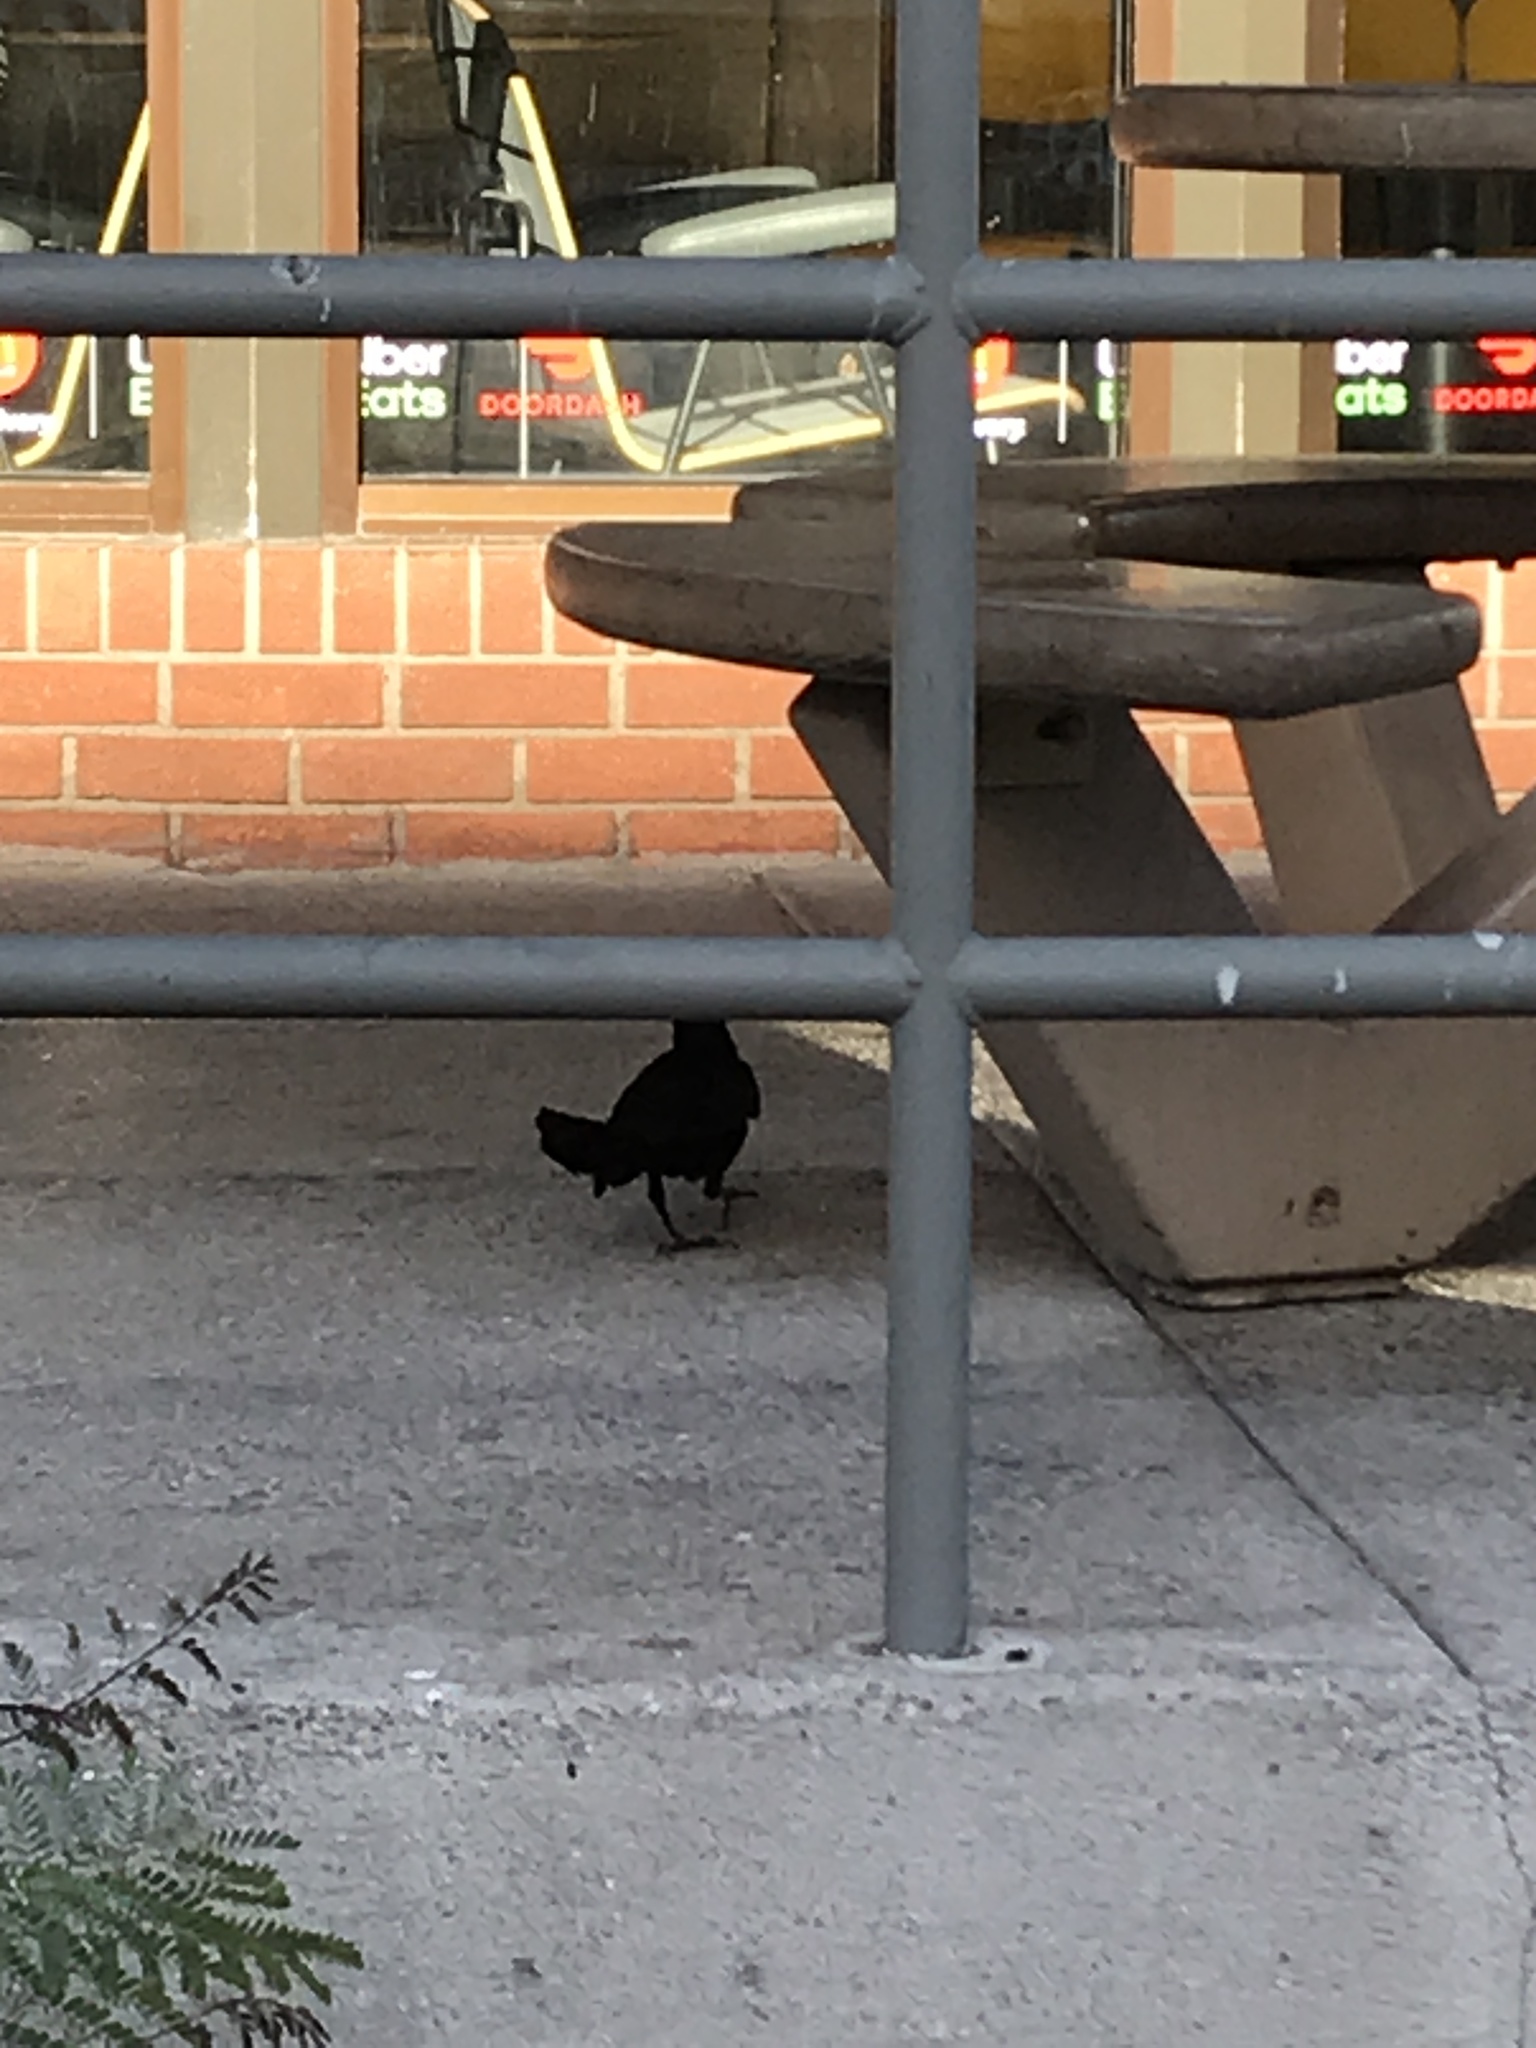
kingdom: Animalia
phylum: Chordata
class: Aves
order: Passeriformes
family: Icteridae
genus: Quiscalus
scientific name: Quiscalus mexicanus
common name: Great-tailed grackle
